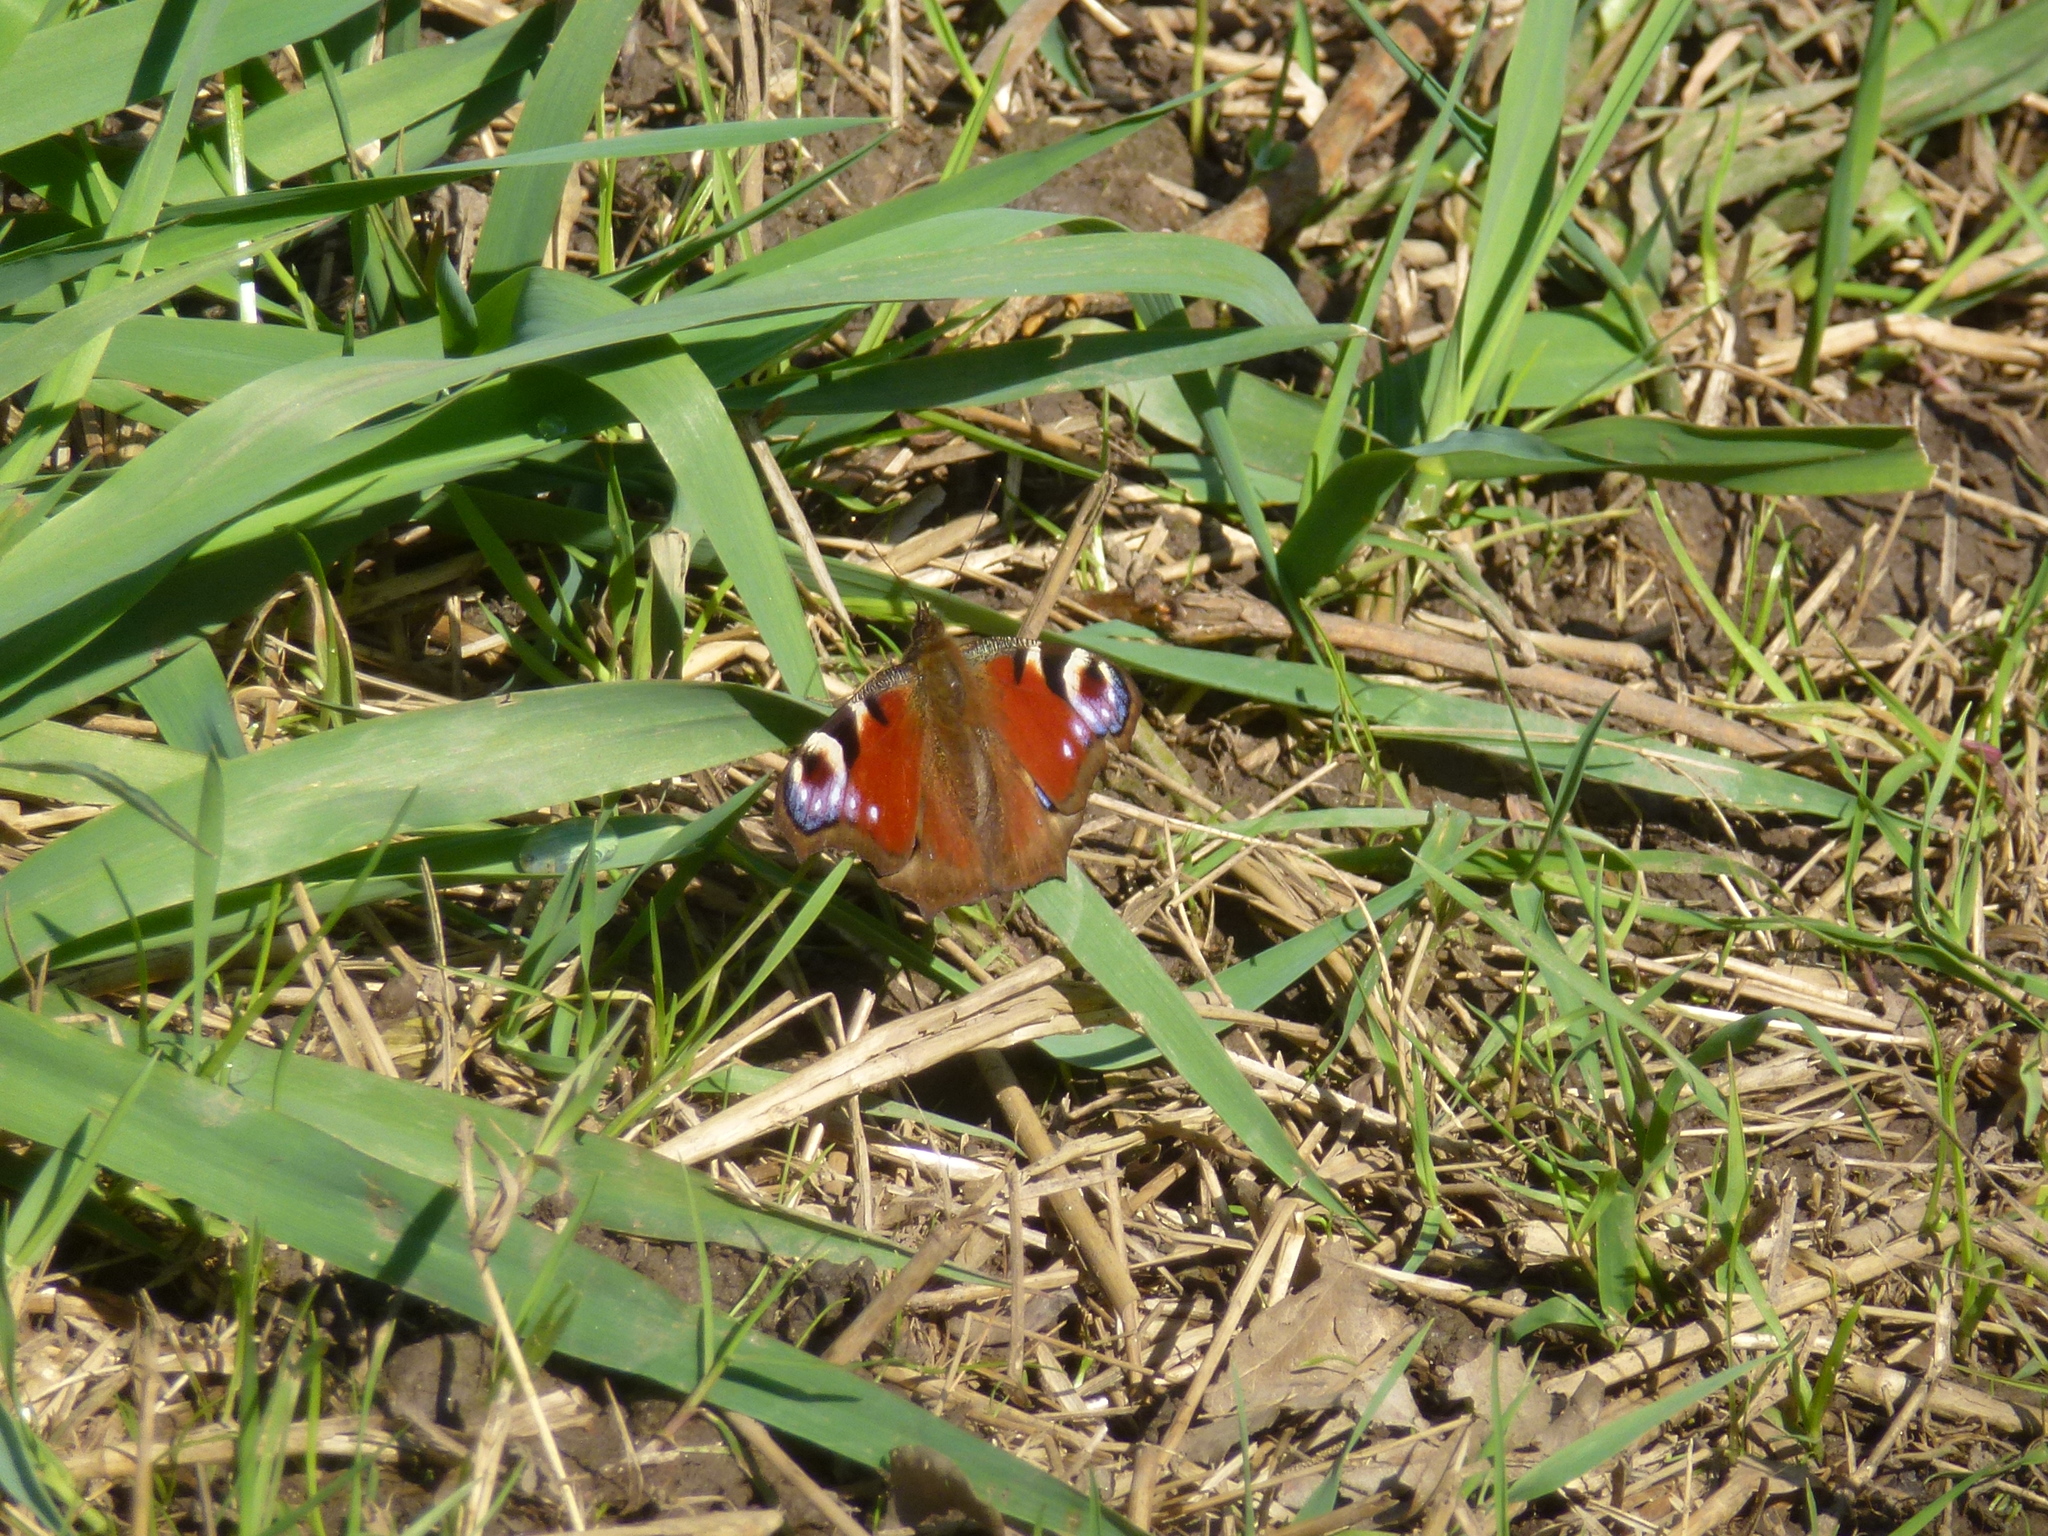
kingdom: Animalia
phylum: Arthropoda
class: Insecta
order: Lepidoptera
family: Nymphalidae
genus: Aglais
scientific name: Aglais io
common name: Peacock
